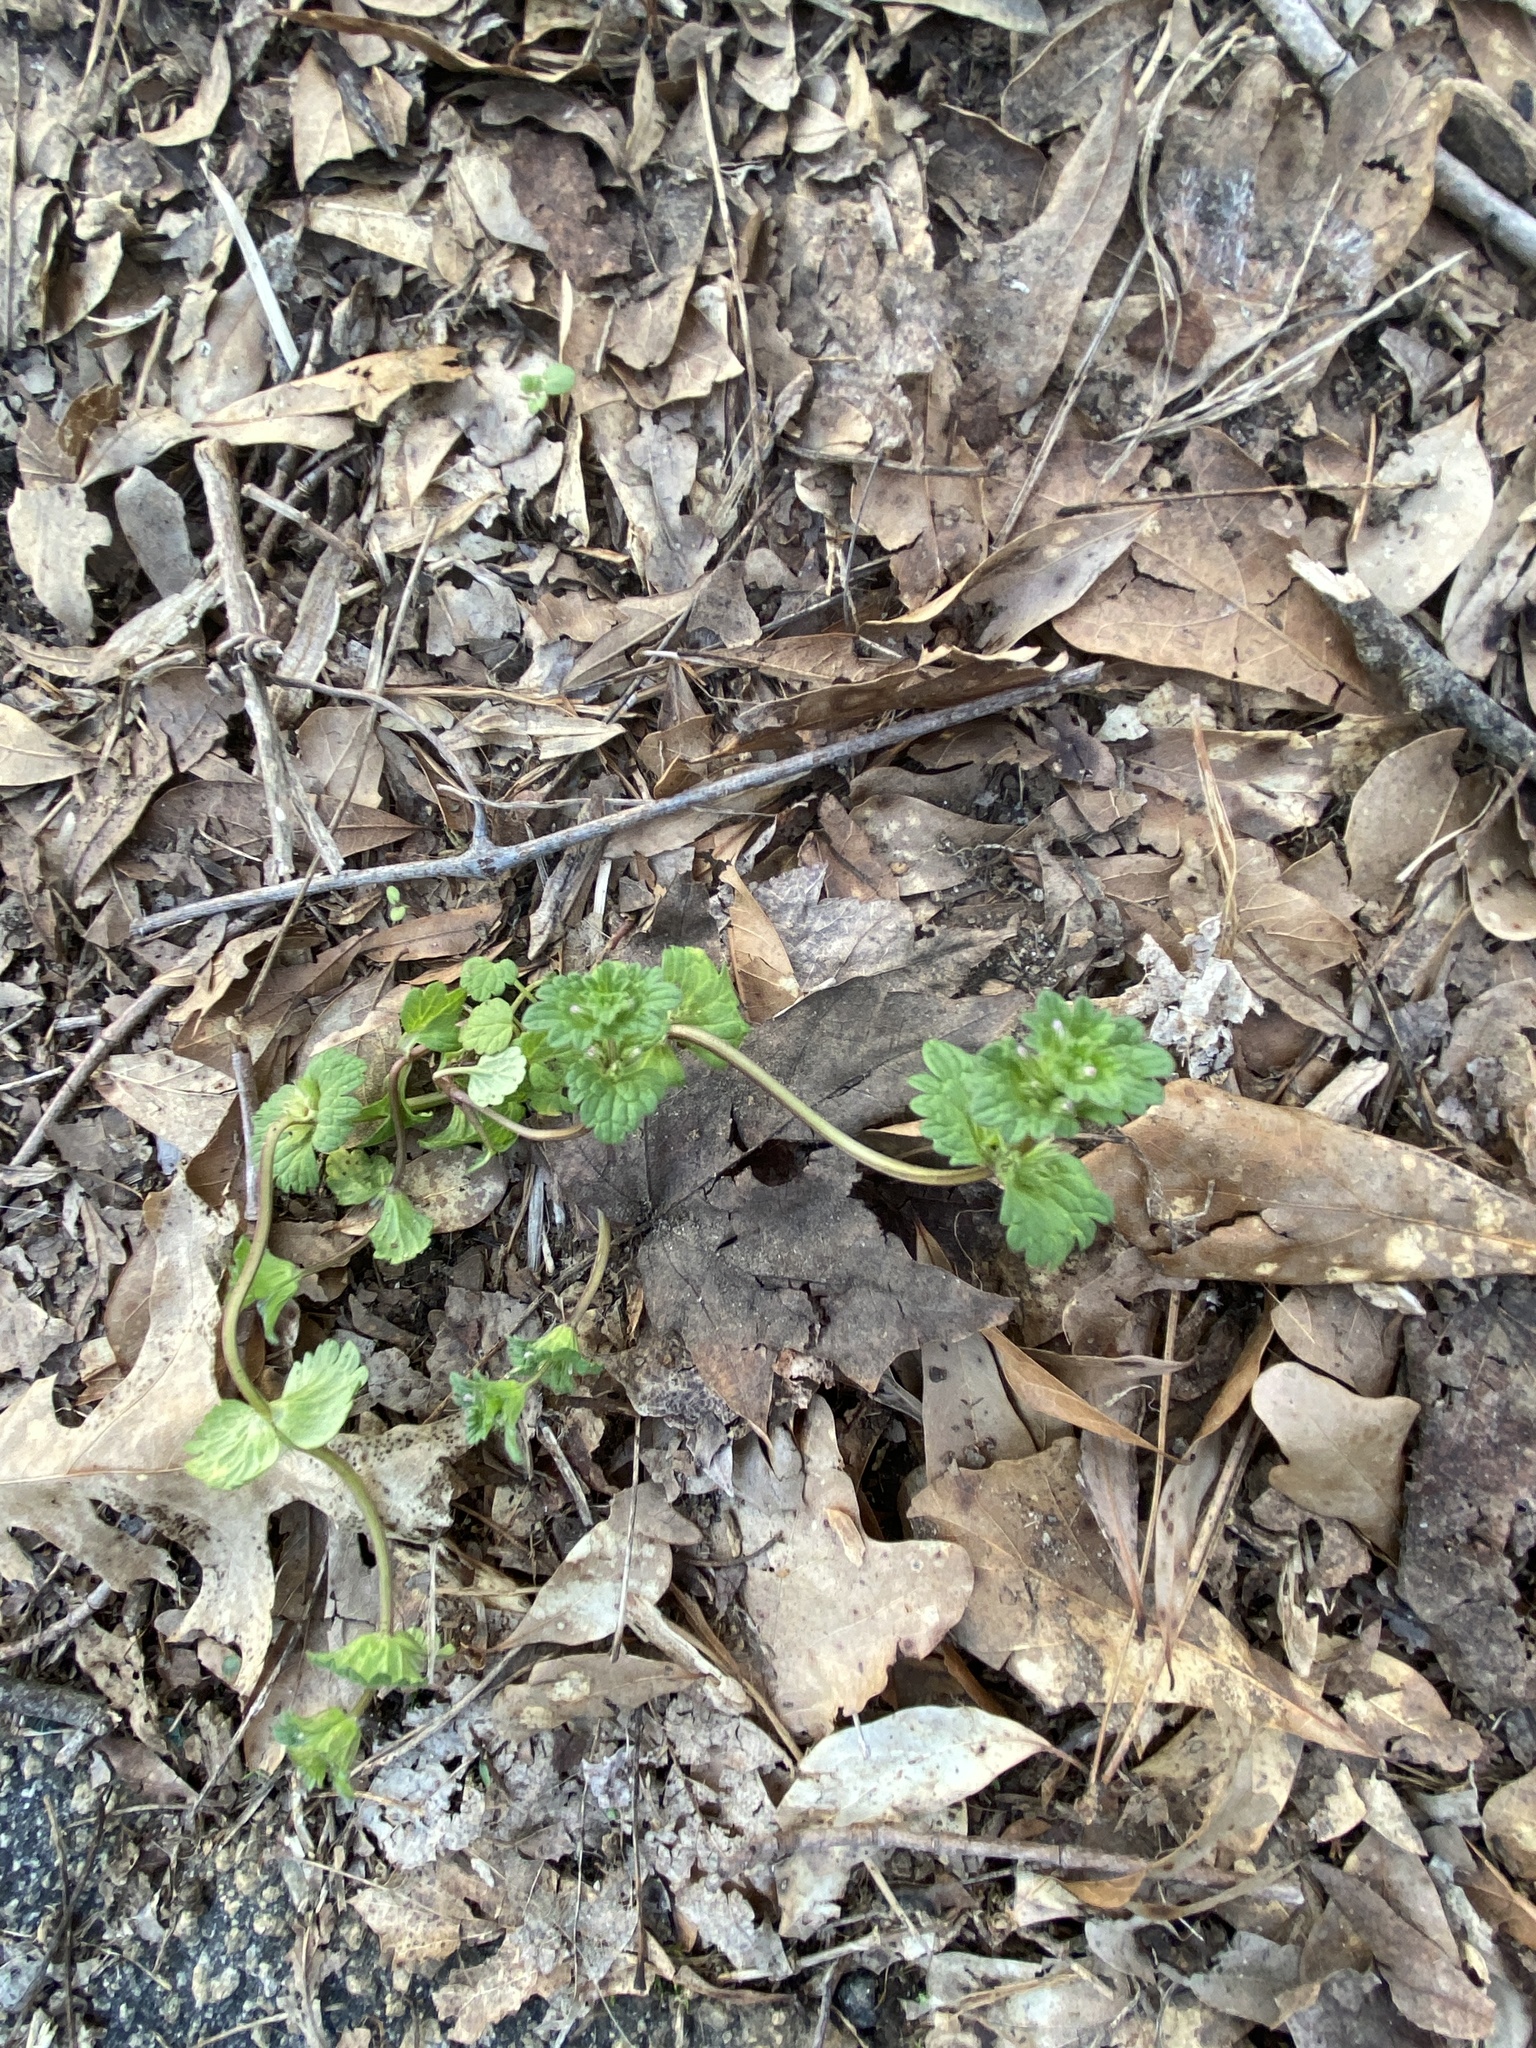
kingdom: Plantae
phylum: Tracheophyta
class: Magnoliopsida
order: Lamiales
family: Lamiaceae
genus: Lamium
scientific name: Lamium amplexicaule
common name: Henbit dead-nettle
